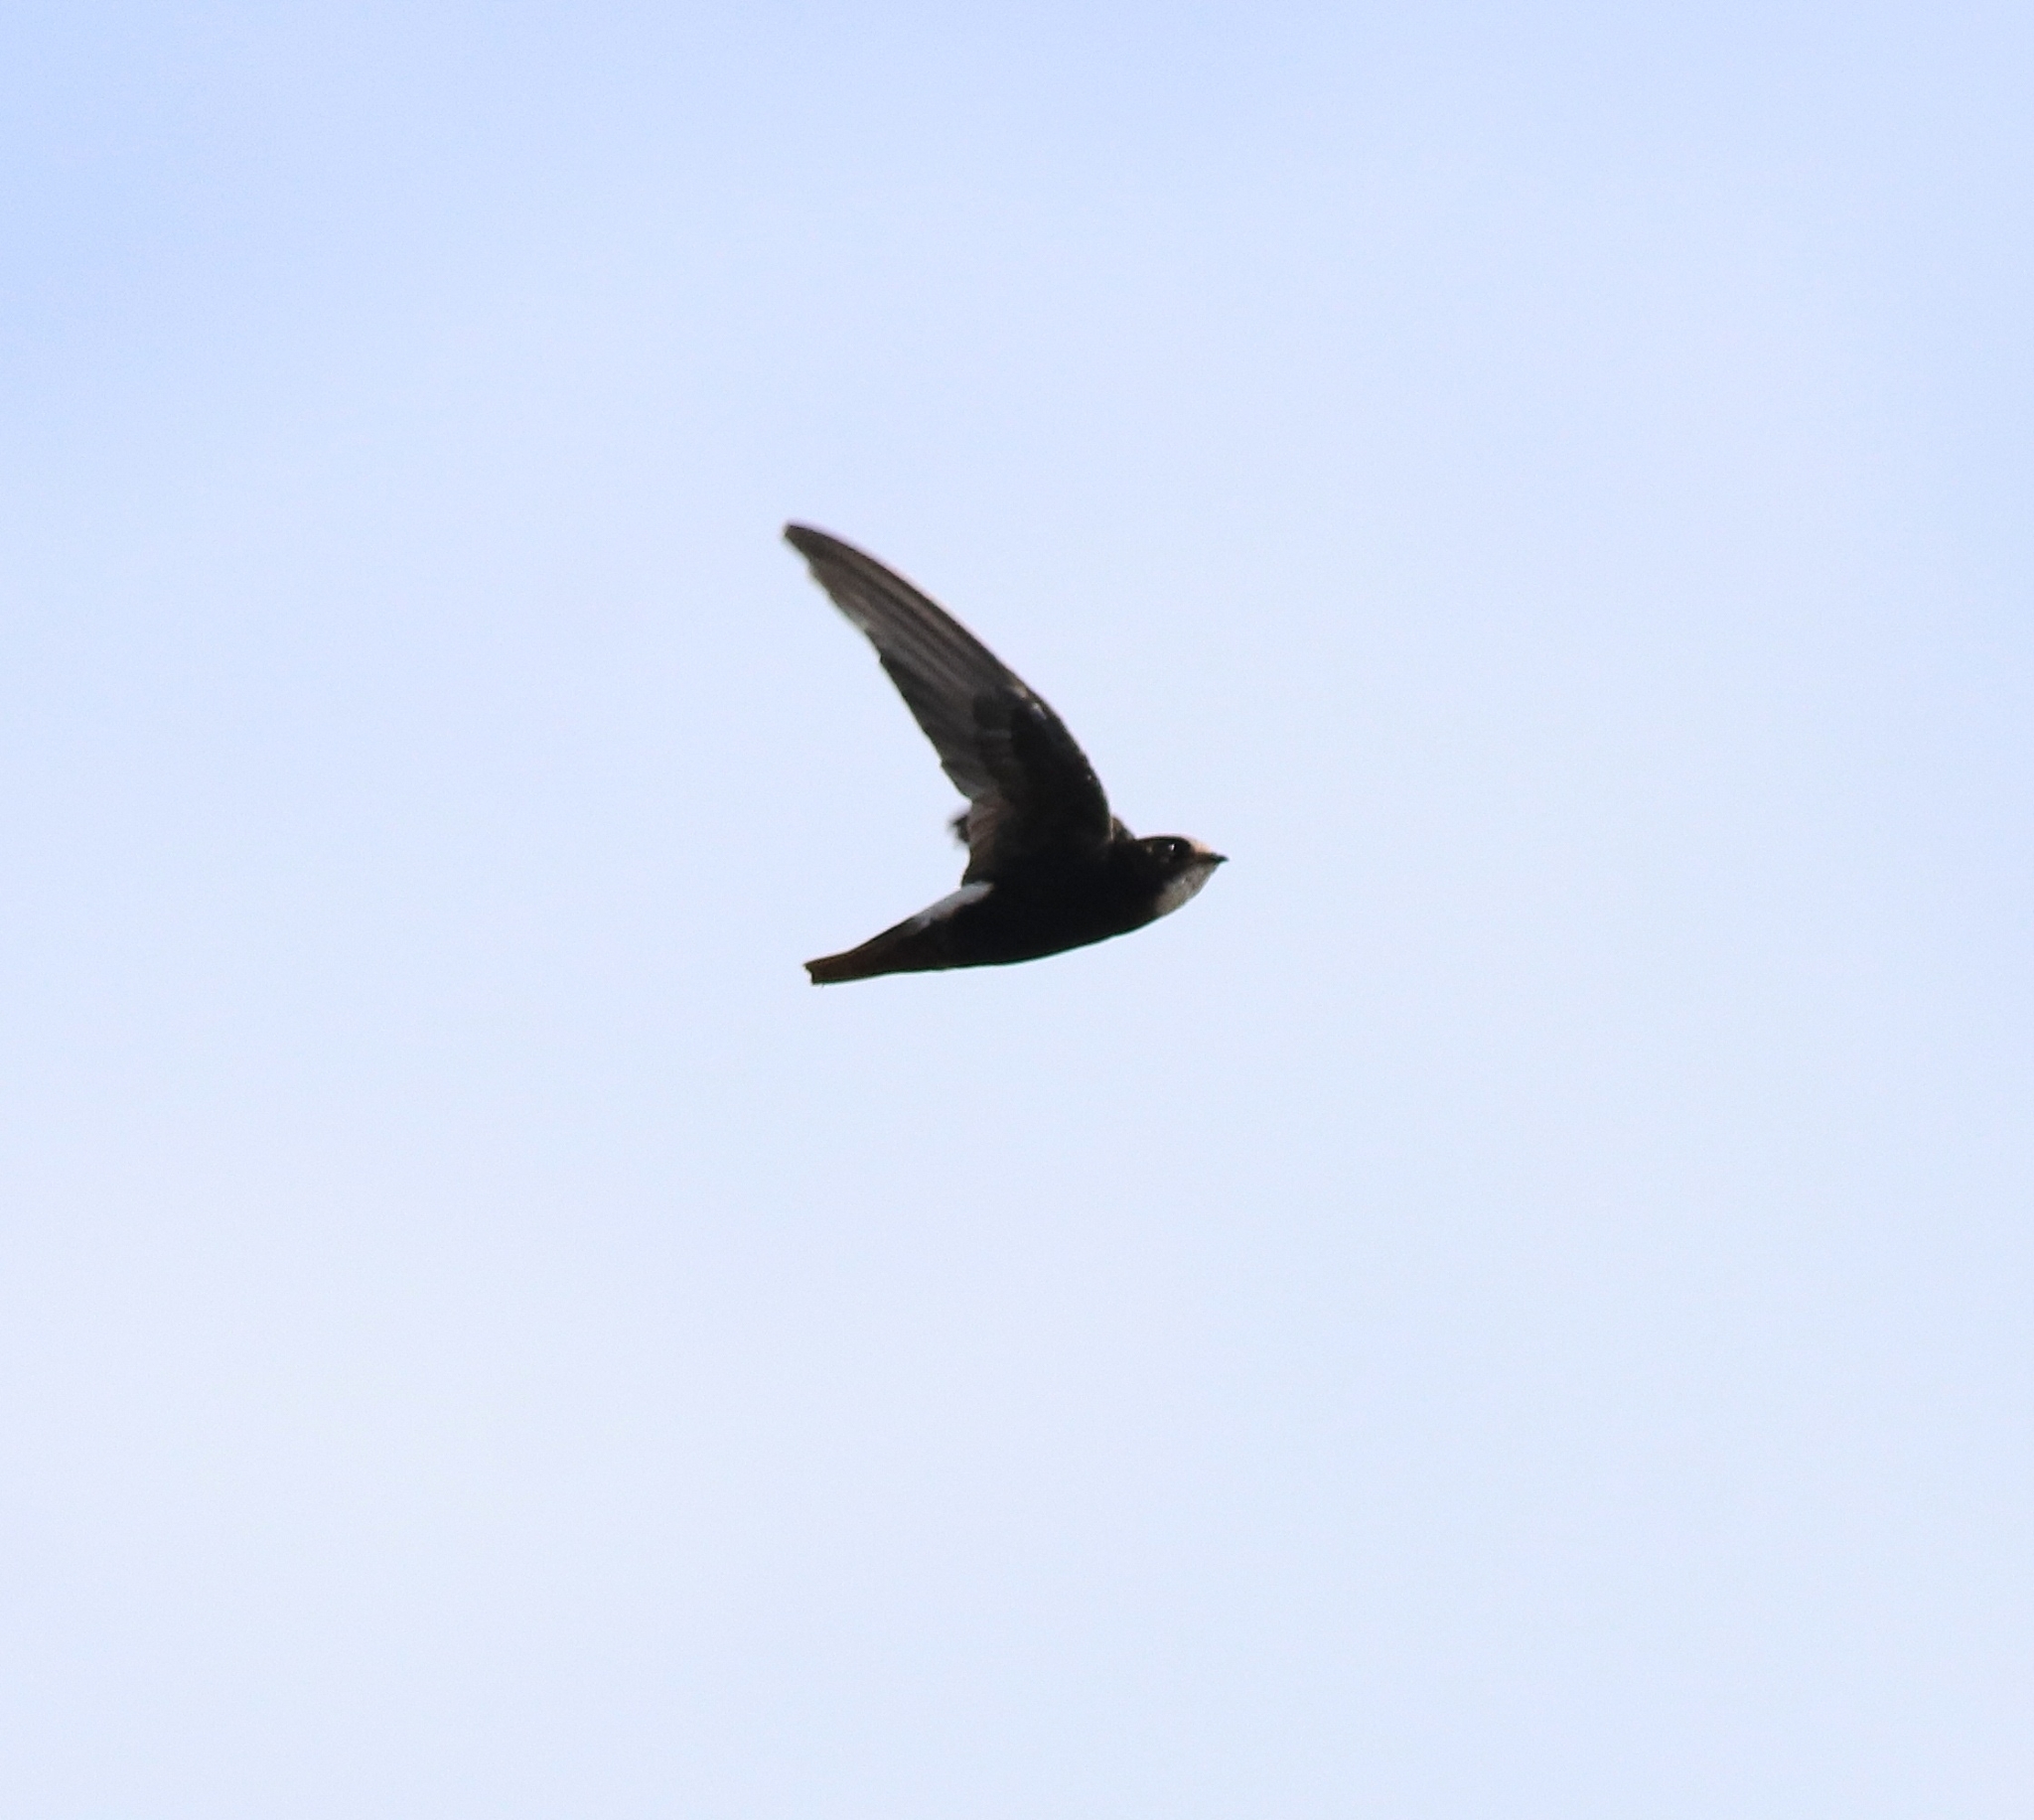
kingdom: Animalia
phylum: Chordata
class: Aves
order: Apodiformes
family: Apodidae
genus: Apus
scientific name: Apus affinis
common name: Little swift
